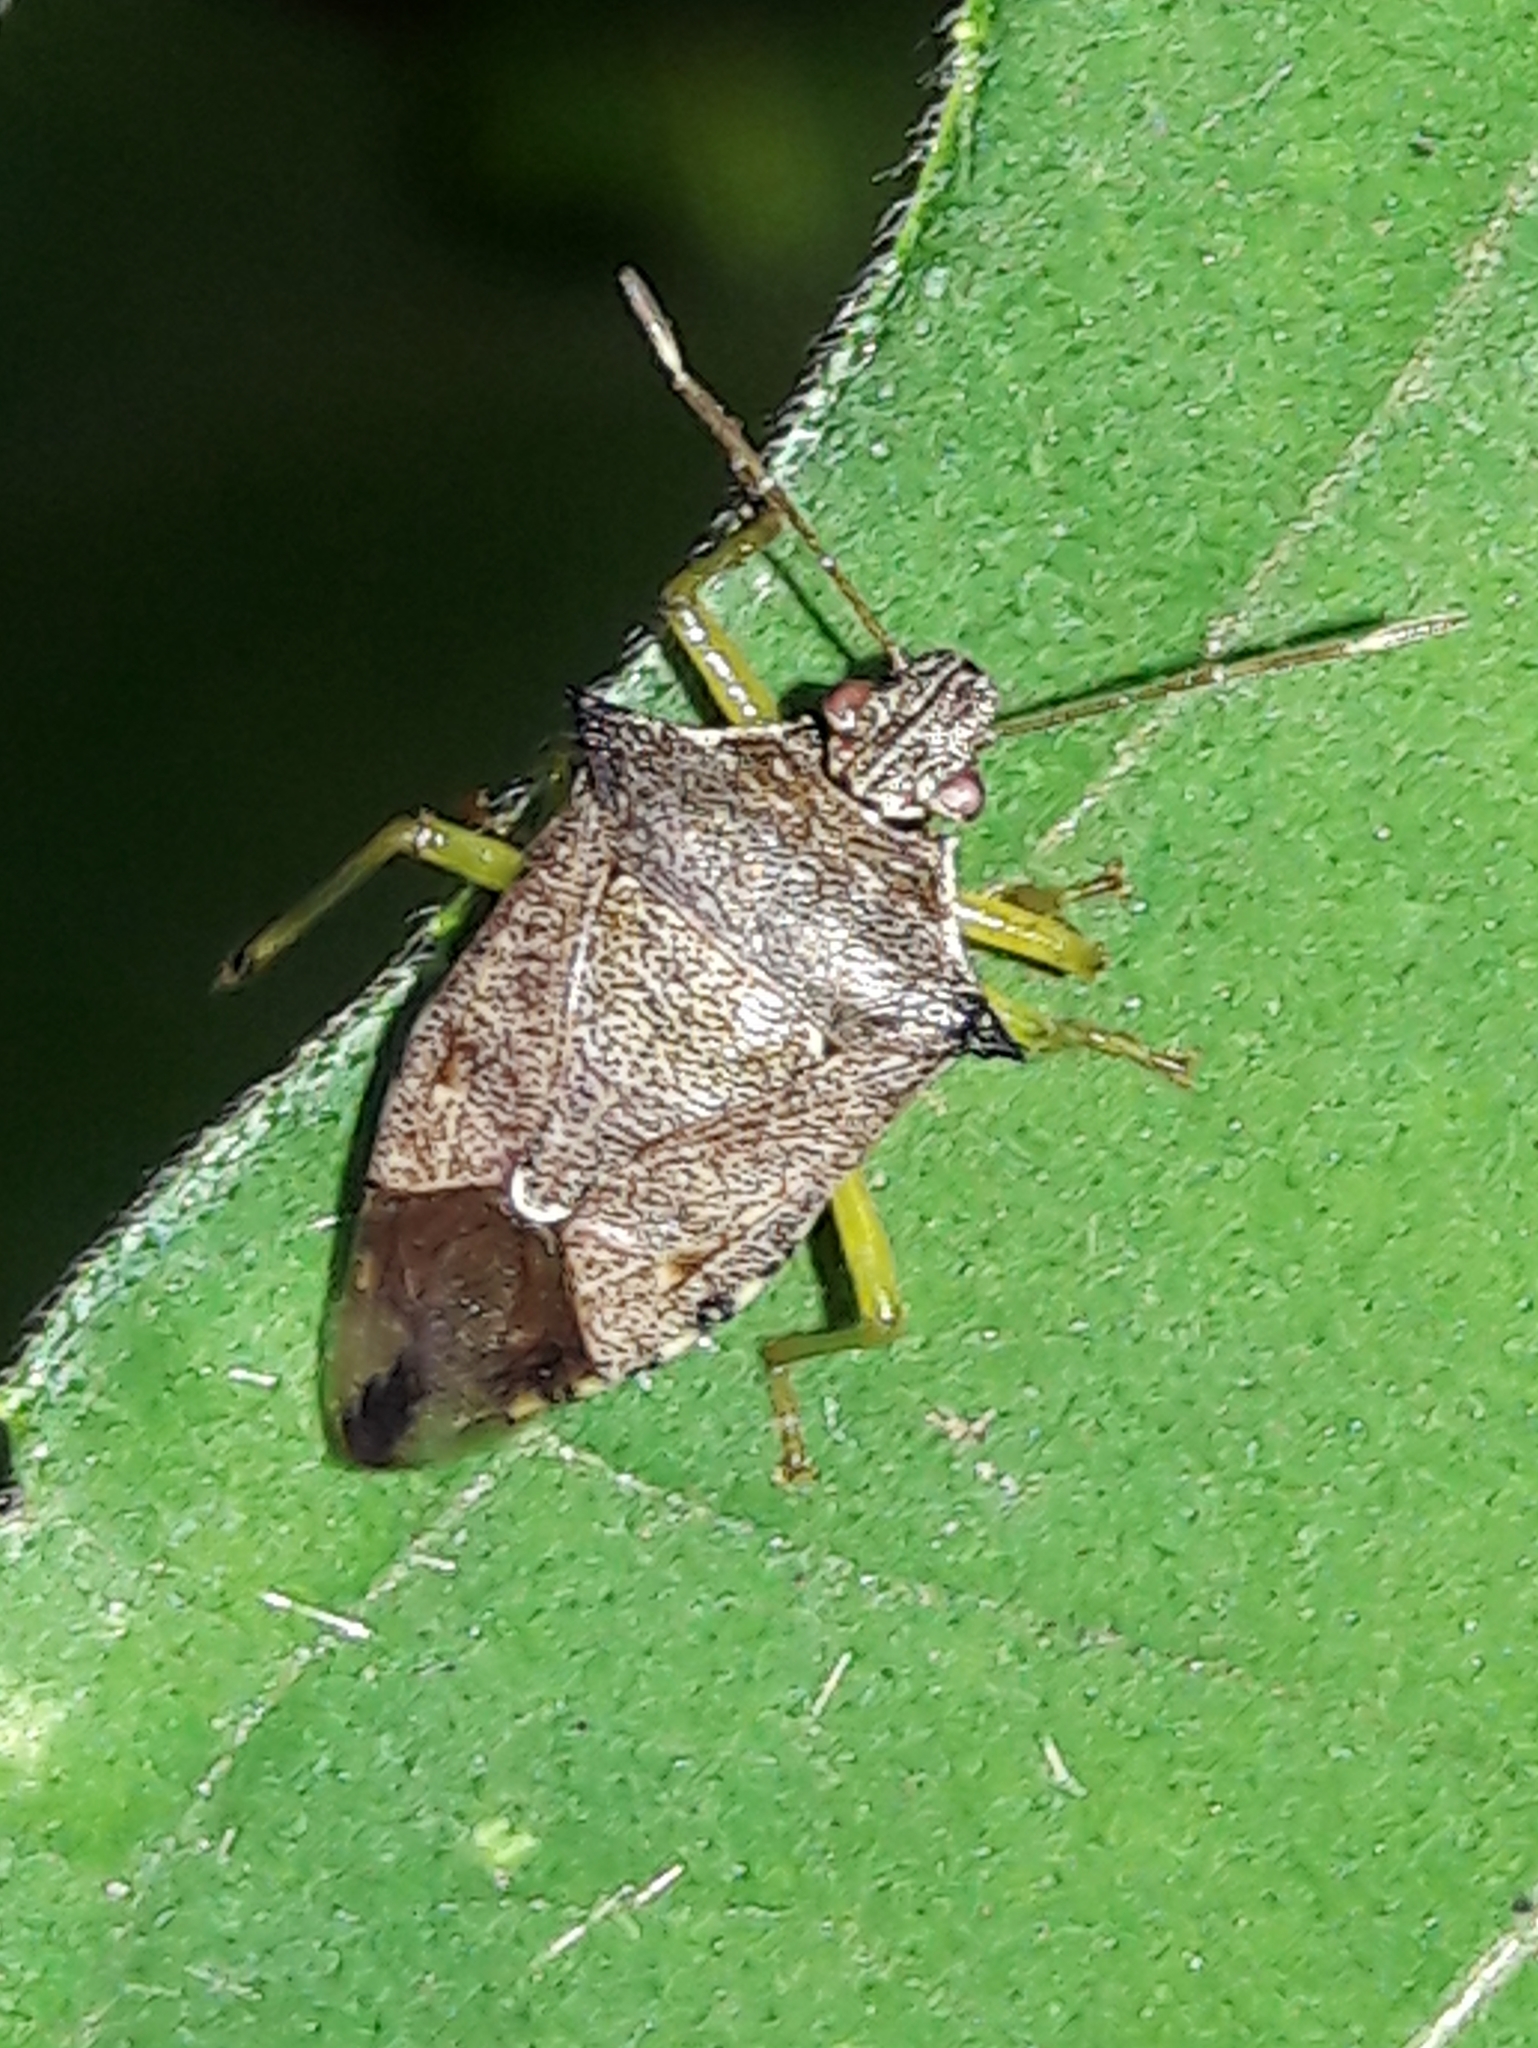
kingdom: Animalia
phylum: Arthropoda
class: Insecta
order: Hemiptera
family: Pentatomidae
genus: Podisus
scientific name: Podisus nigrispinus
